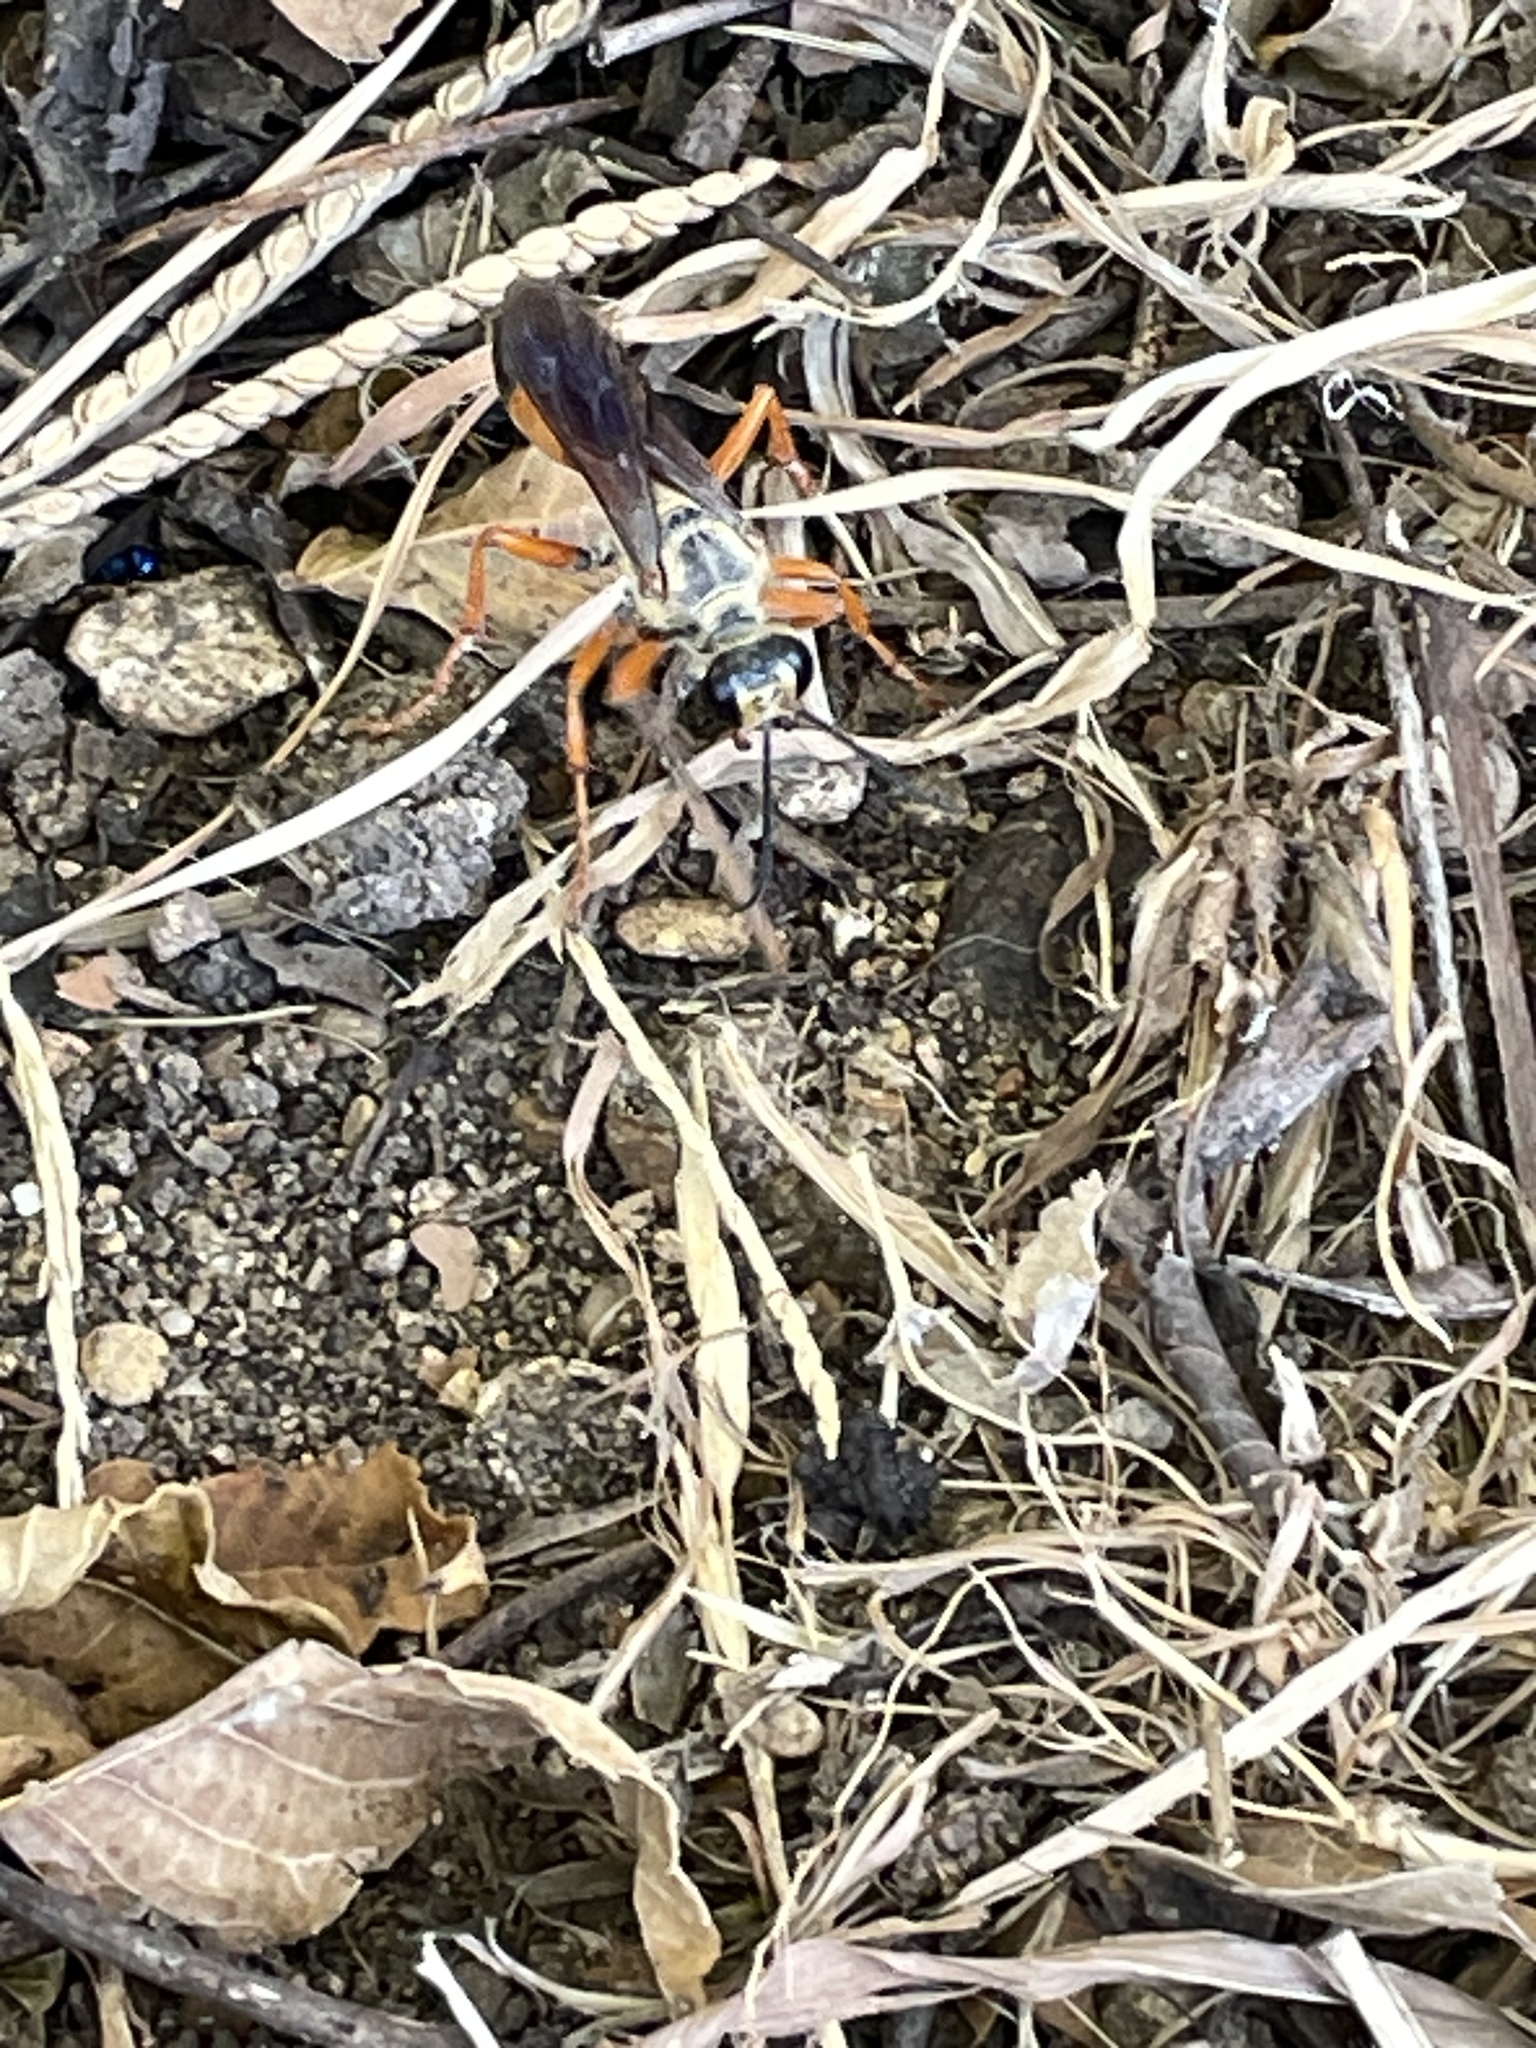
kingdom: Animalia
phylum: Arthropoda
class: Insecta
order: Hymenoptera
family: Sphecidae
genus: Sphex
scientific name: Sphex ichneumoneus
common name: Great golden digger wasp
